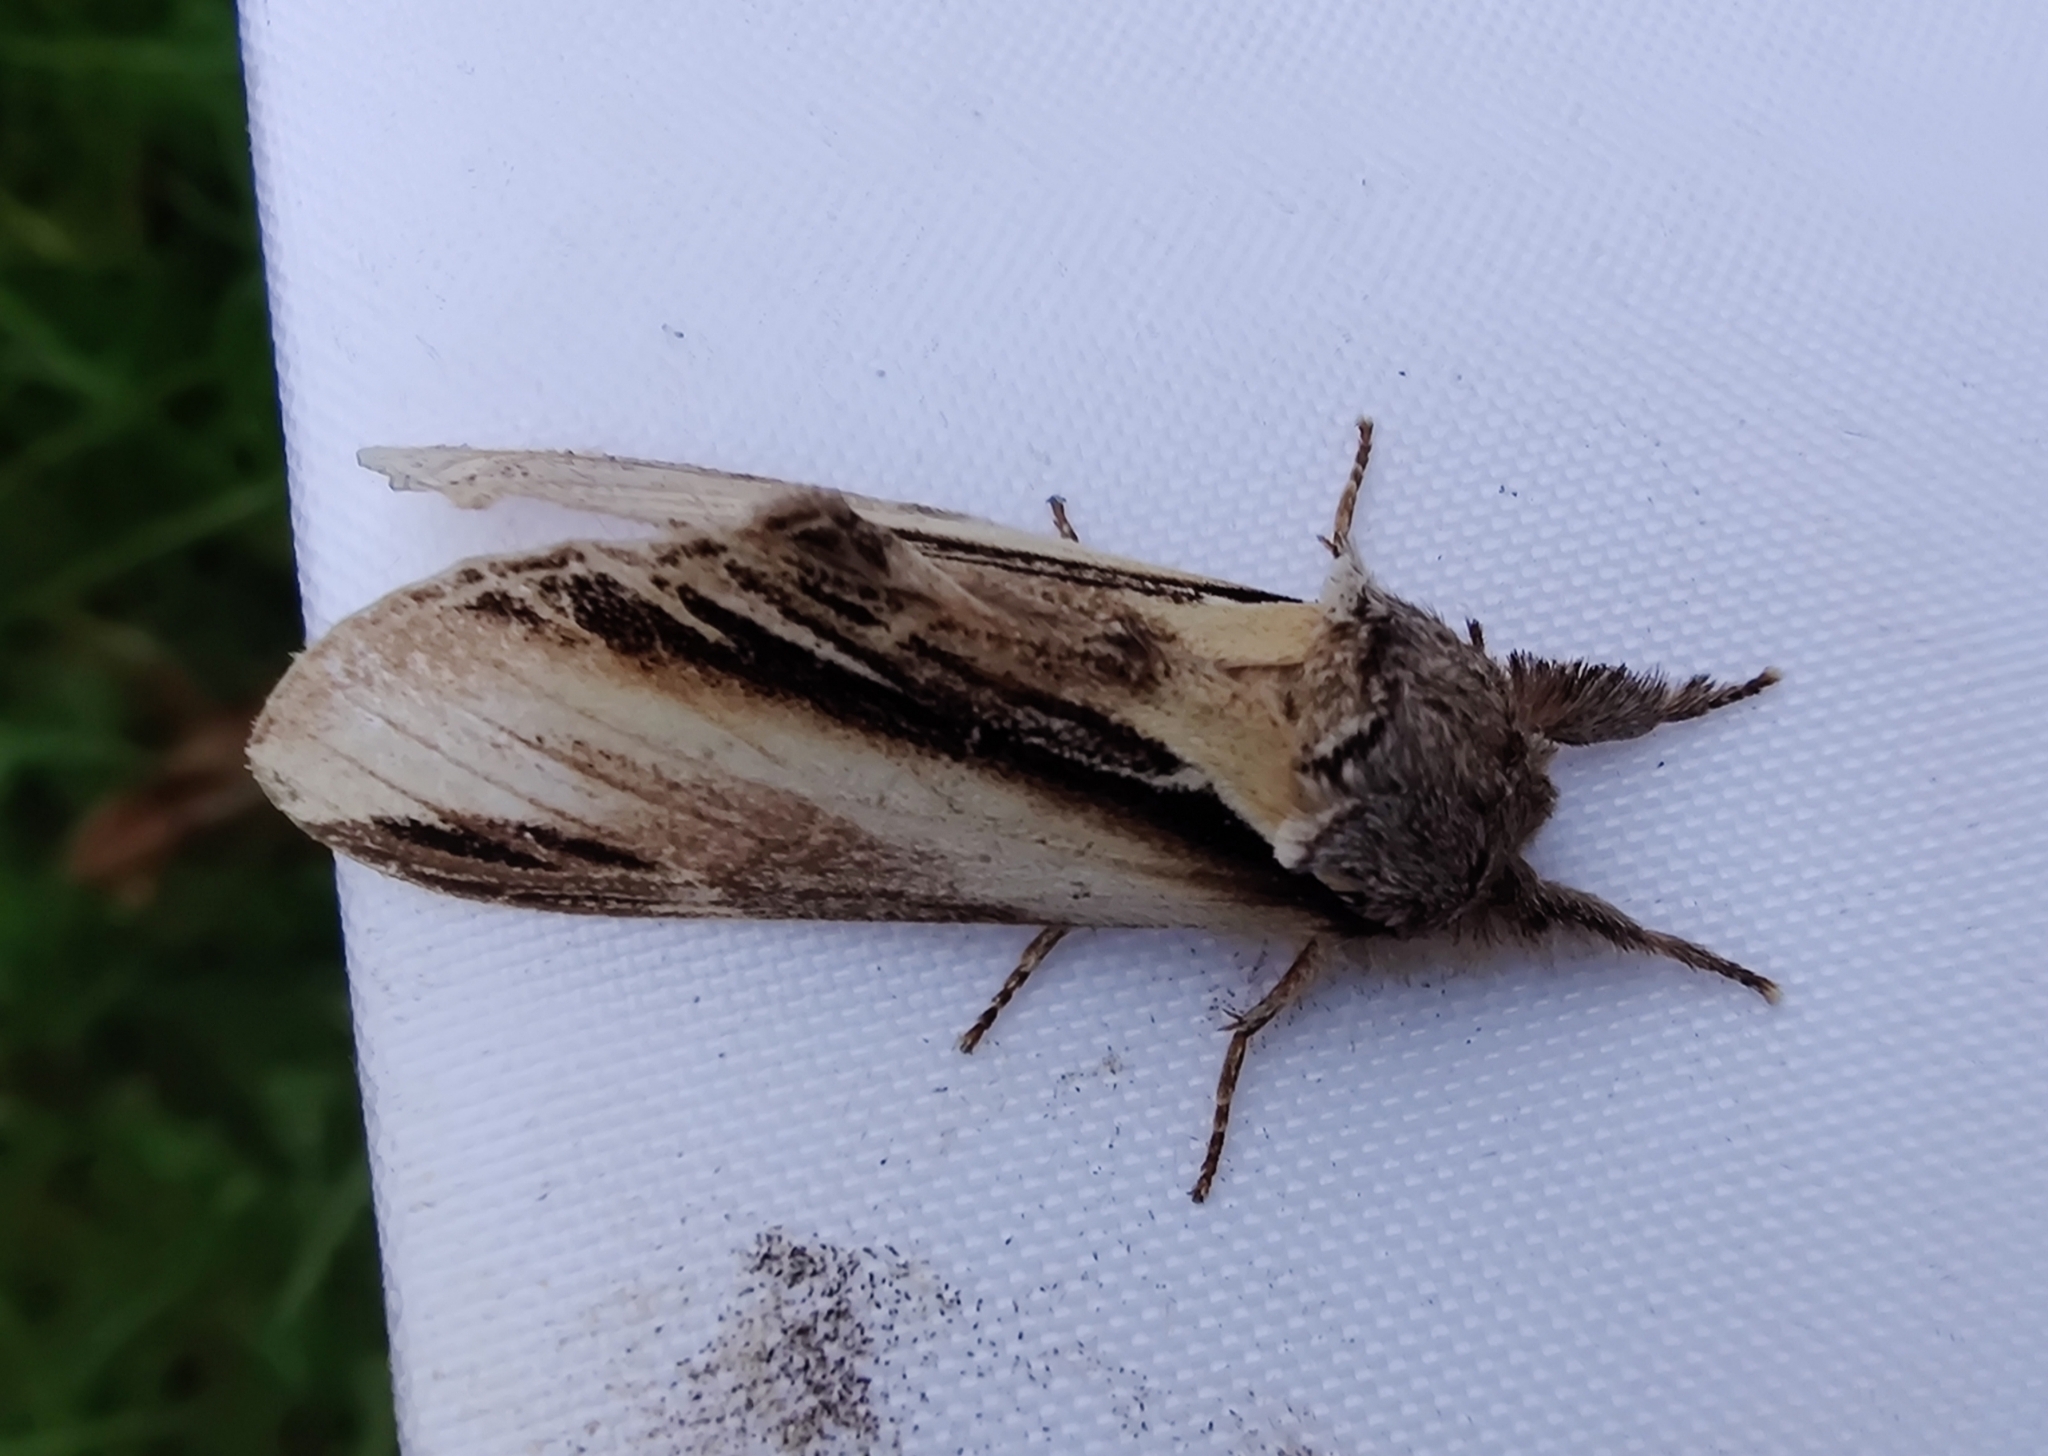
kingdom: Animalia
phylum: Arthropoda
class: Insecta
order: Lepidoptera
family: Notodontidae
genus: Pheosia
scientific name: Pheosia tremula
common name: Swallow prominent
